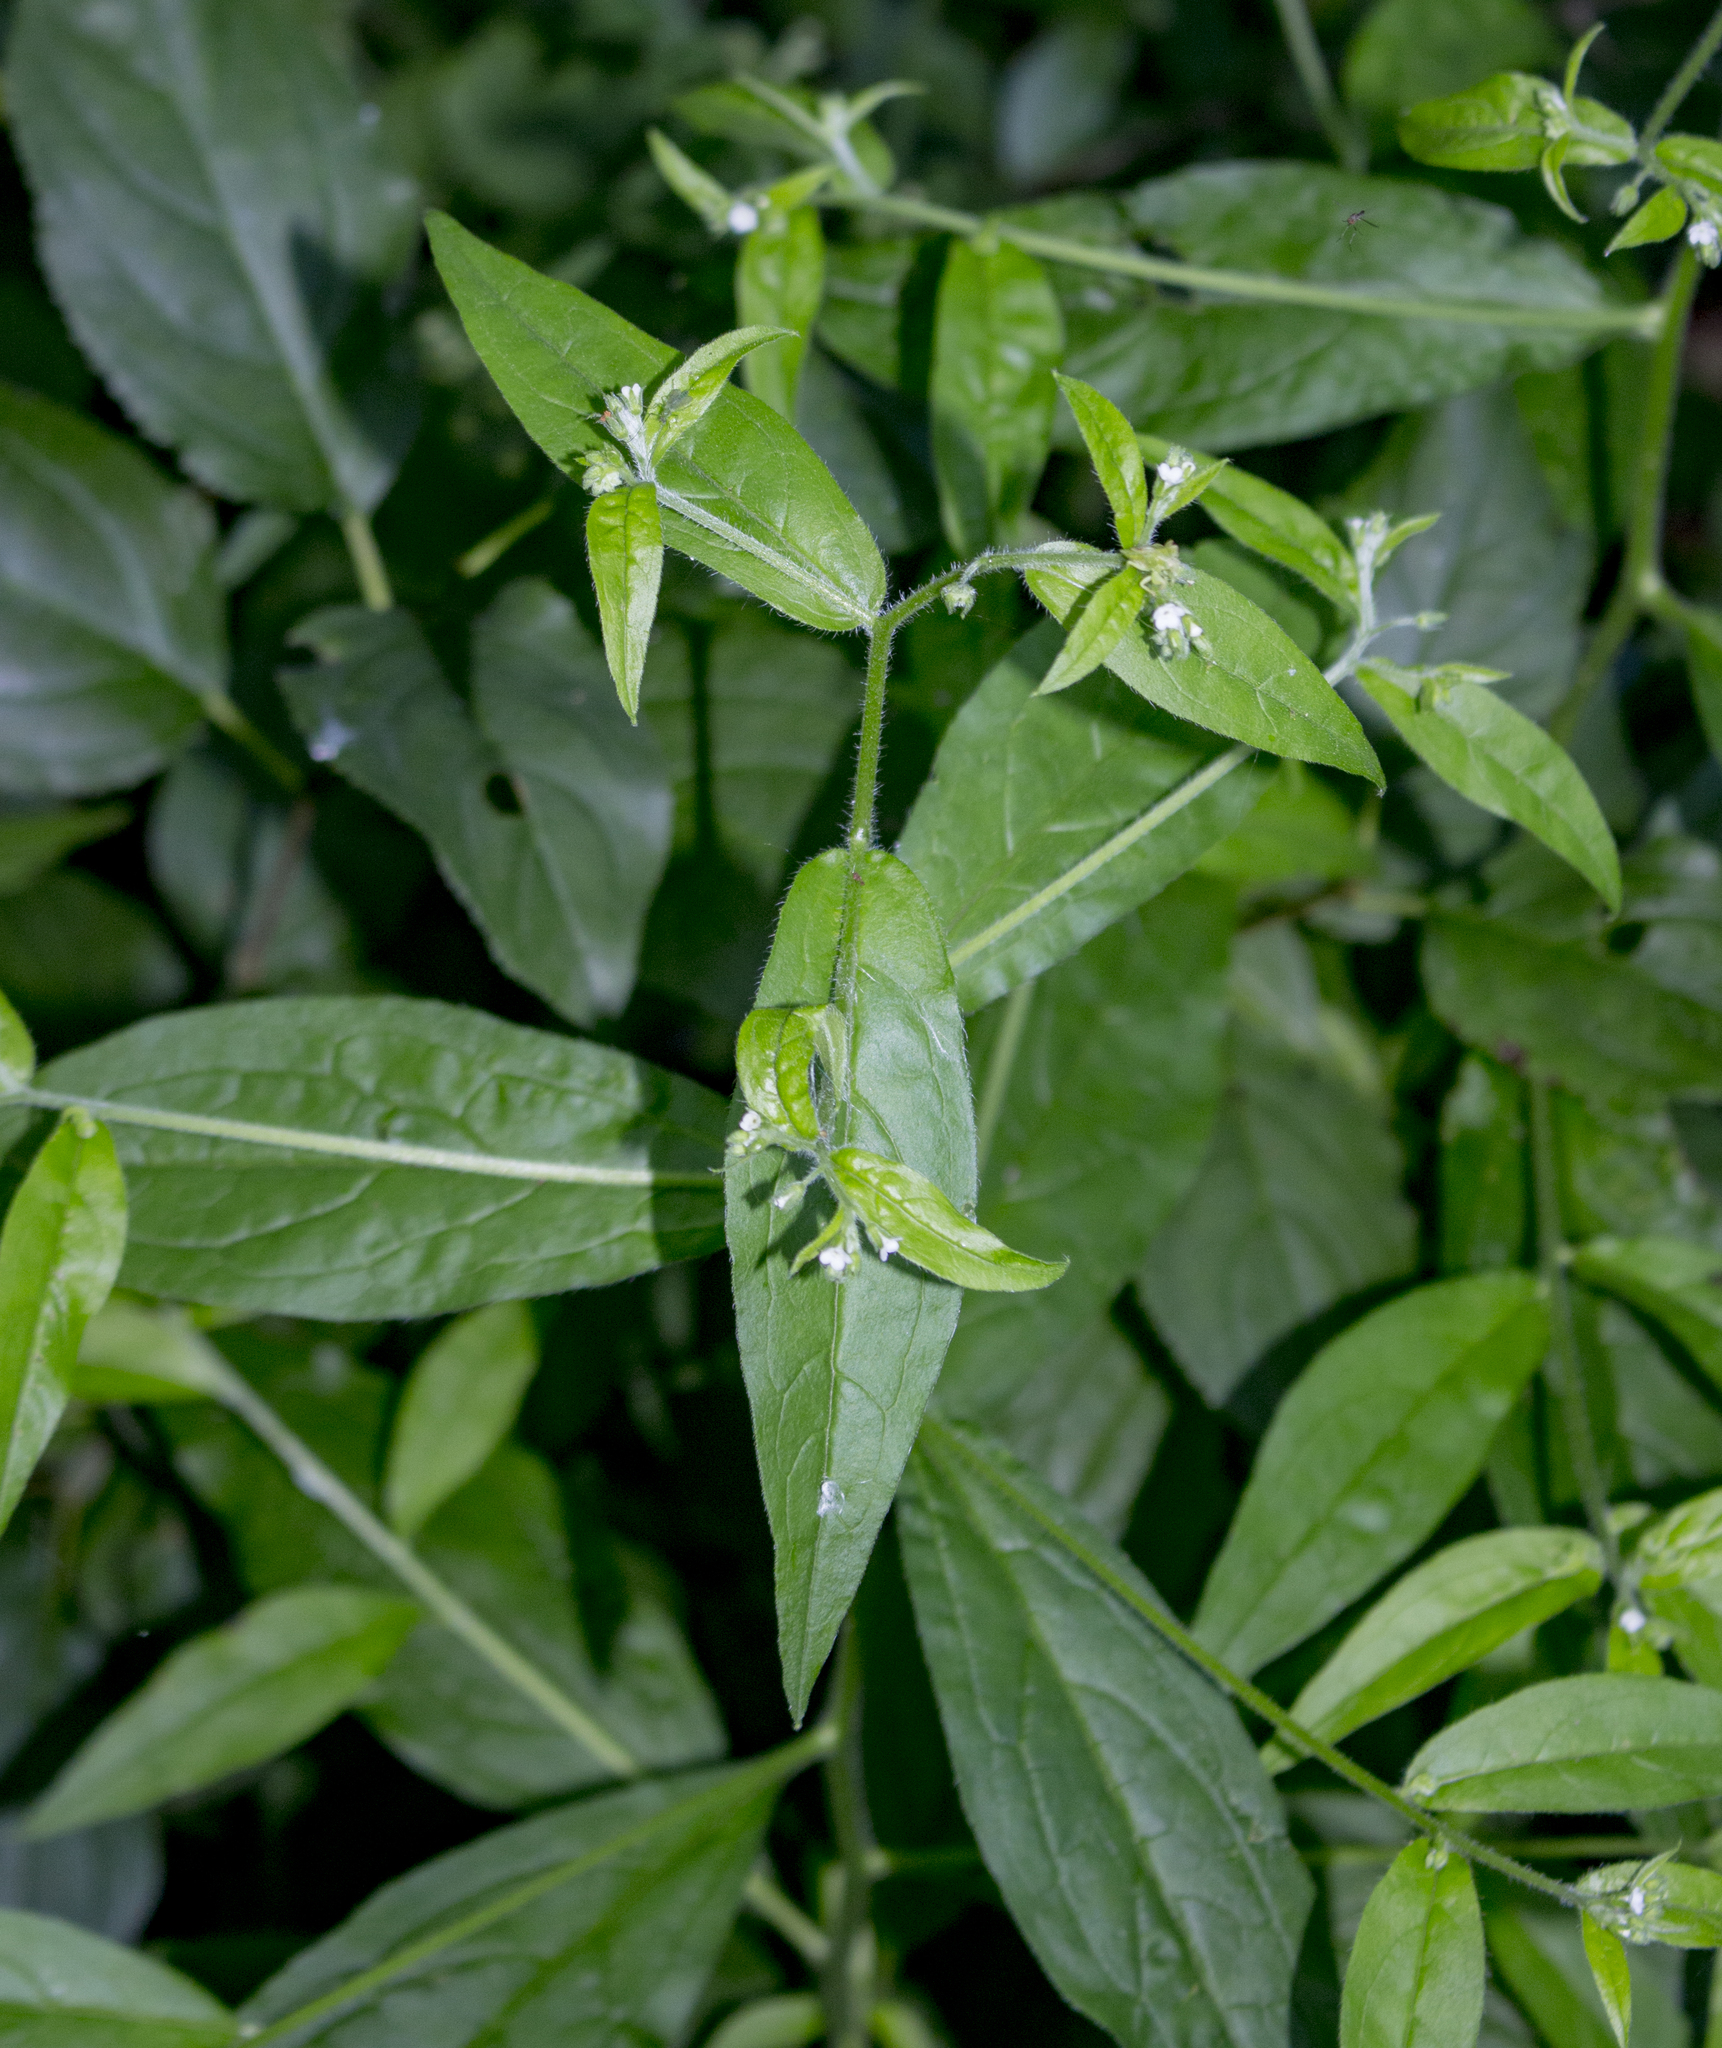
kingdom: Plantae
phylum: Tracheophyta
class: Magnoliopsida
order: Boraginales
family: Boraginaceae
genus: Hackelia
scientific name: Hackelia virginiana
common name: Beggar's-lice
